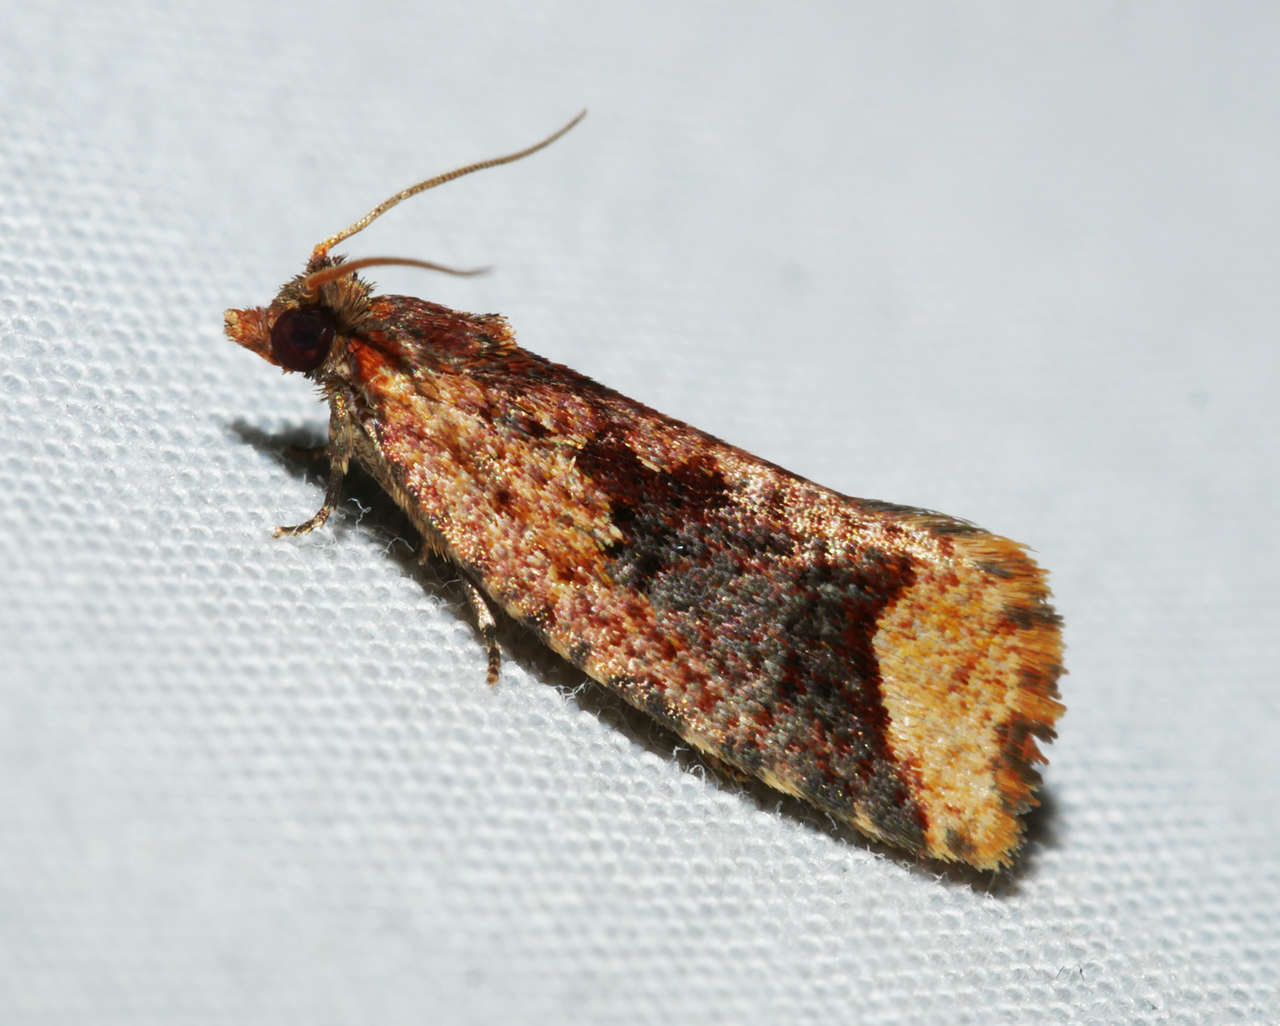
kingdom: Animalia
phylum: Arthropoda
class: Insecta
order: Lepidoptera
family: Tortricidae
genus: Epitymbia
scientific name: Epitymbia scotinopa
